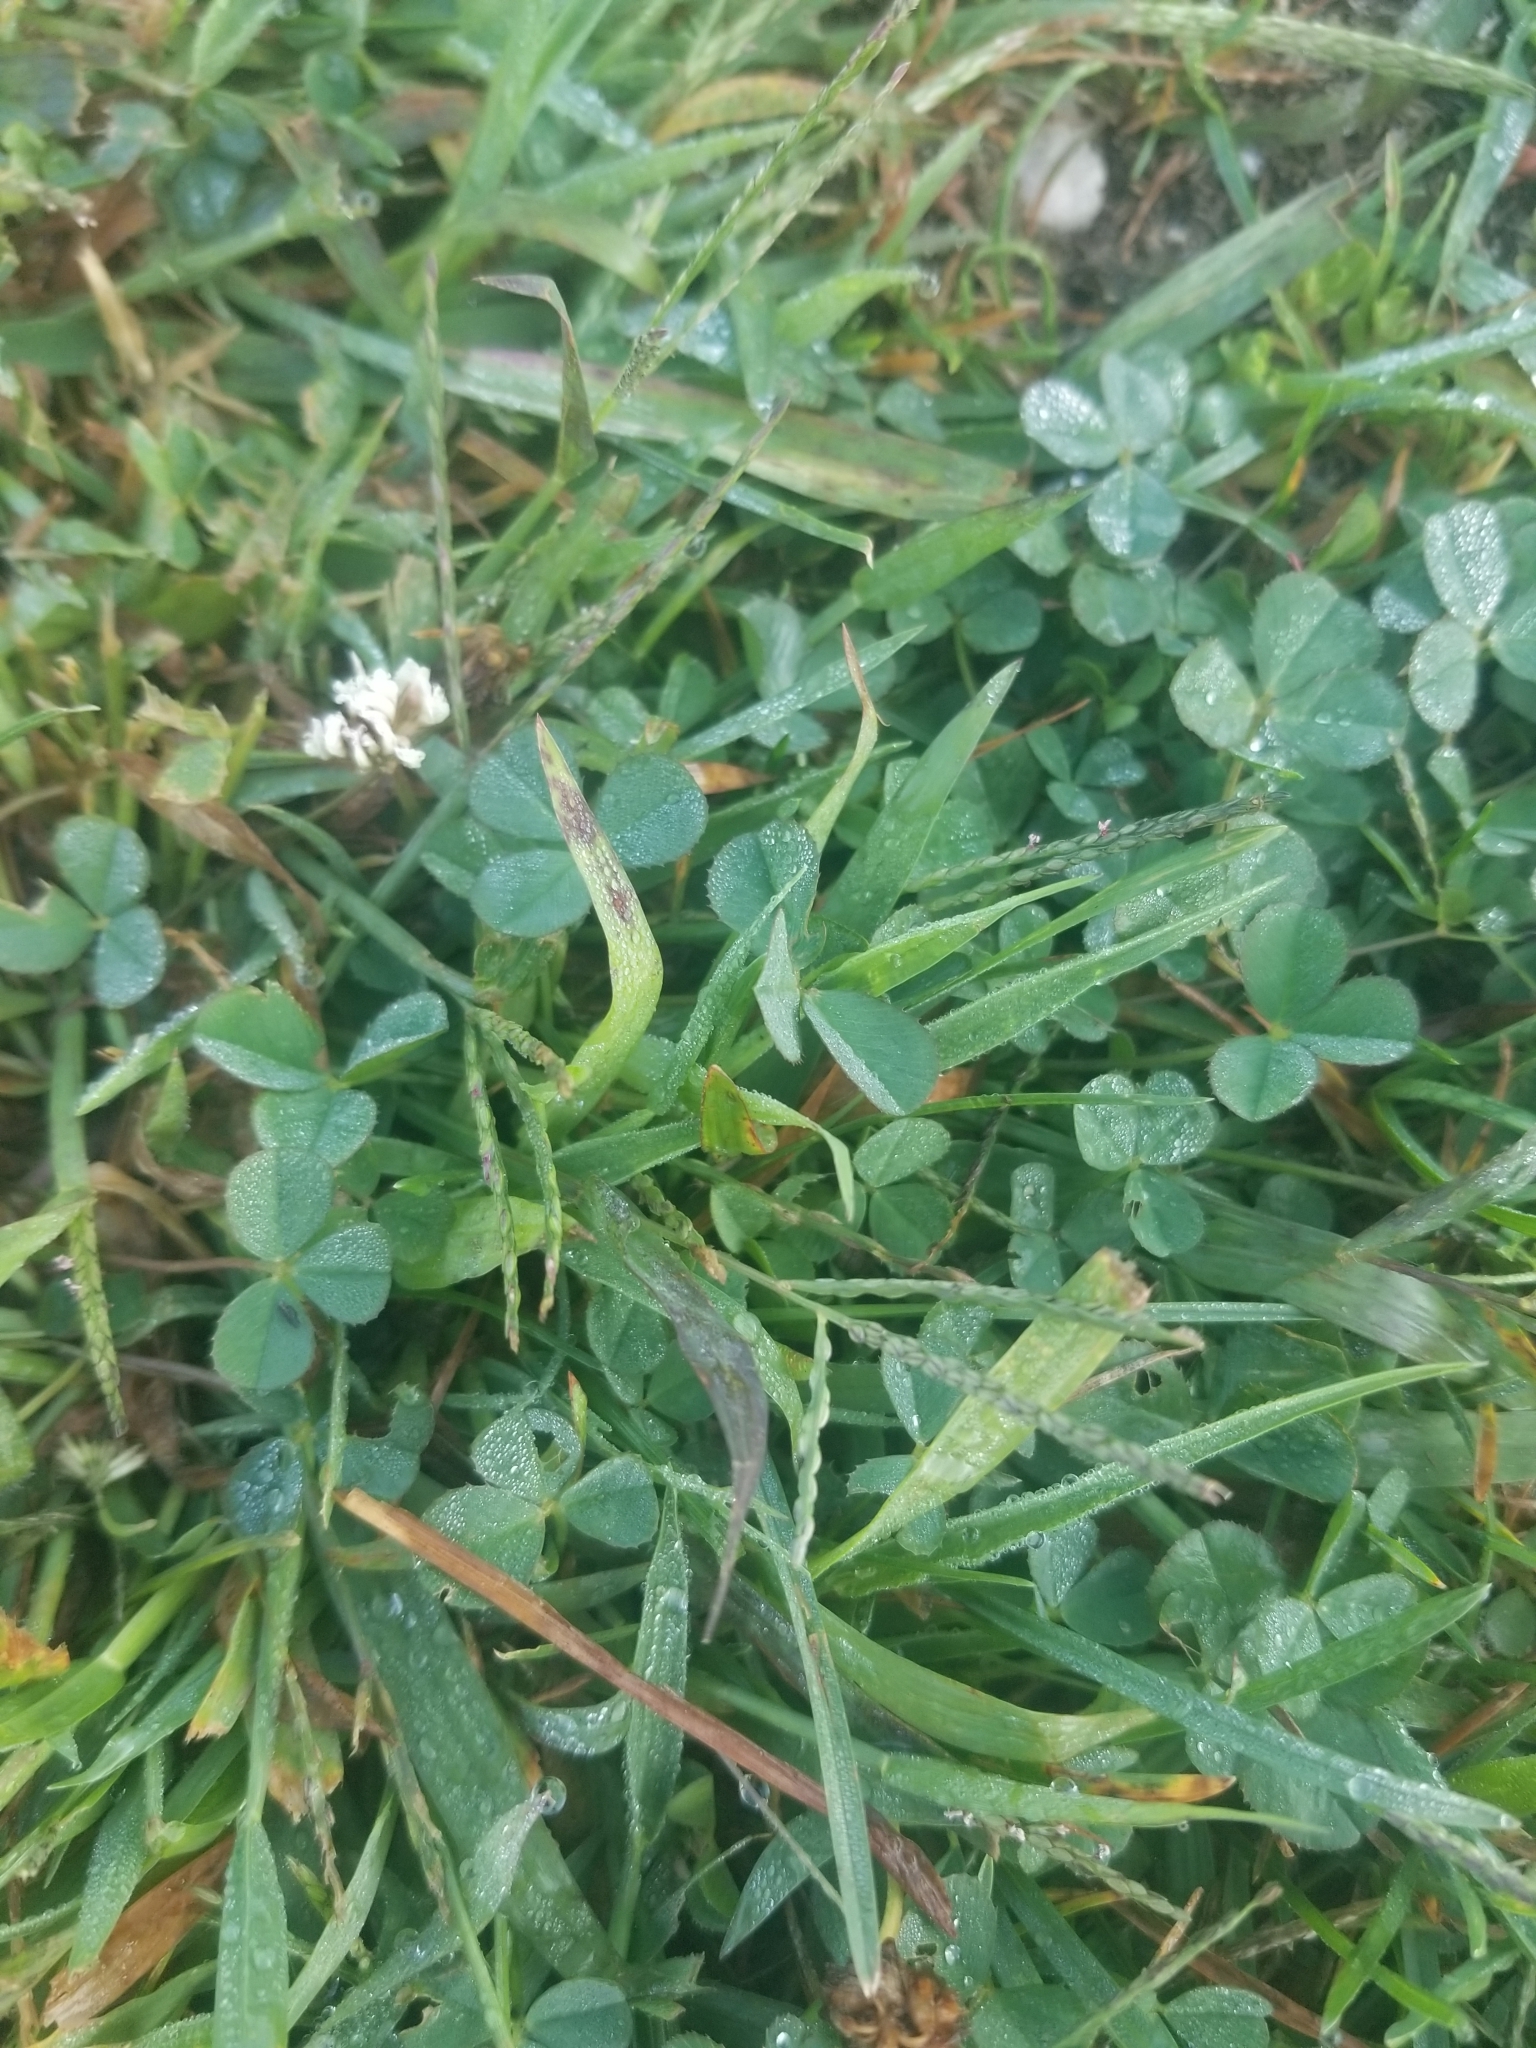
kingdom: Plantae
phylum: Tracheophyta
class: Magnoliopsida
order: Fabales
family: Fabaceae
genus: Trifolium
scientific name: Trifolium repens
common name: White clover
